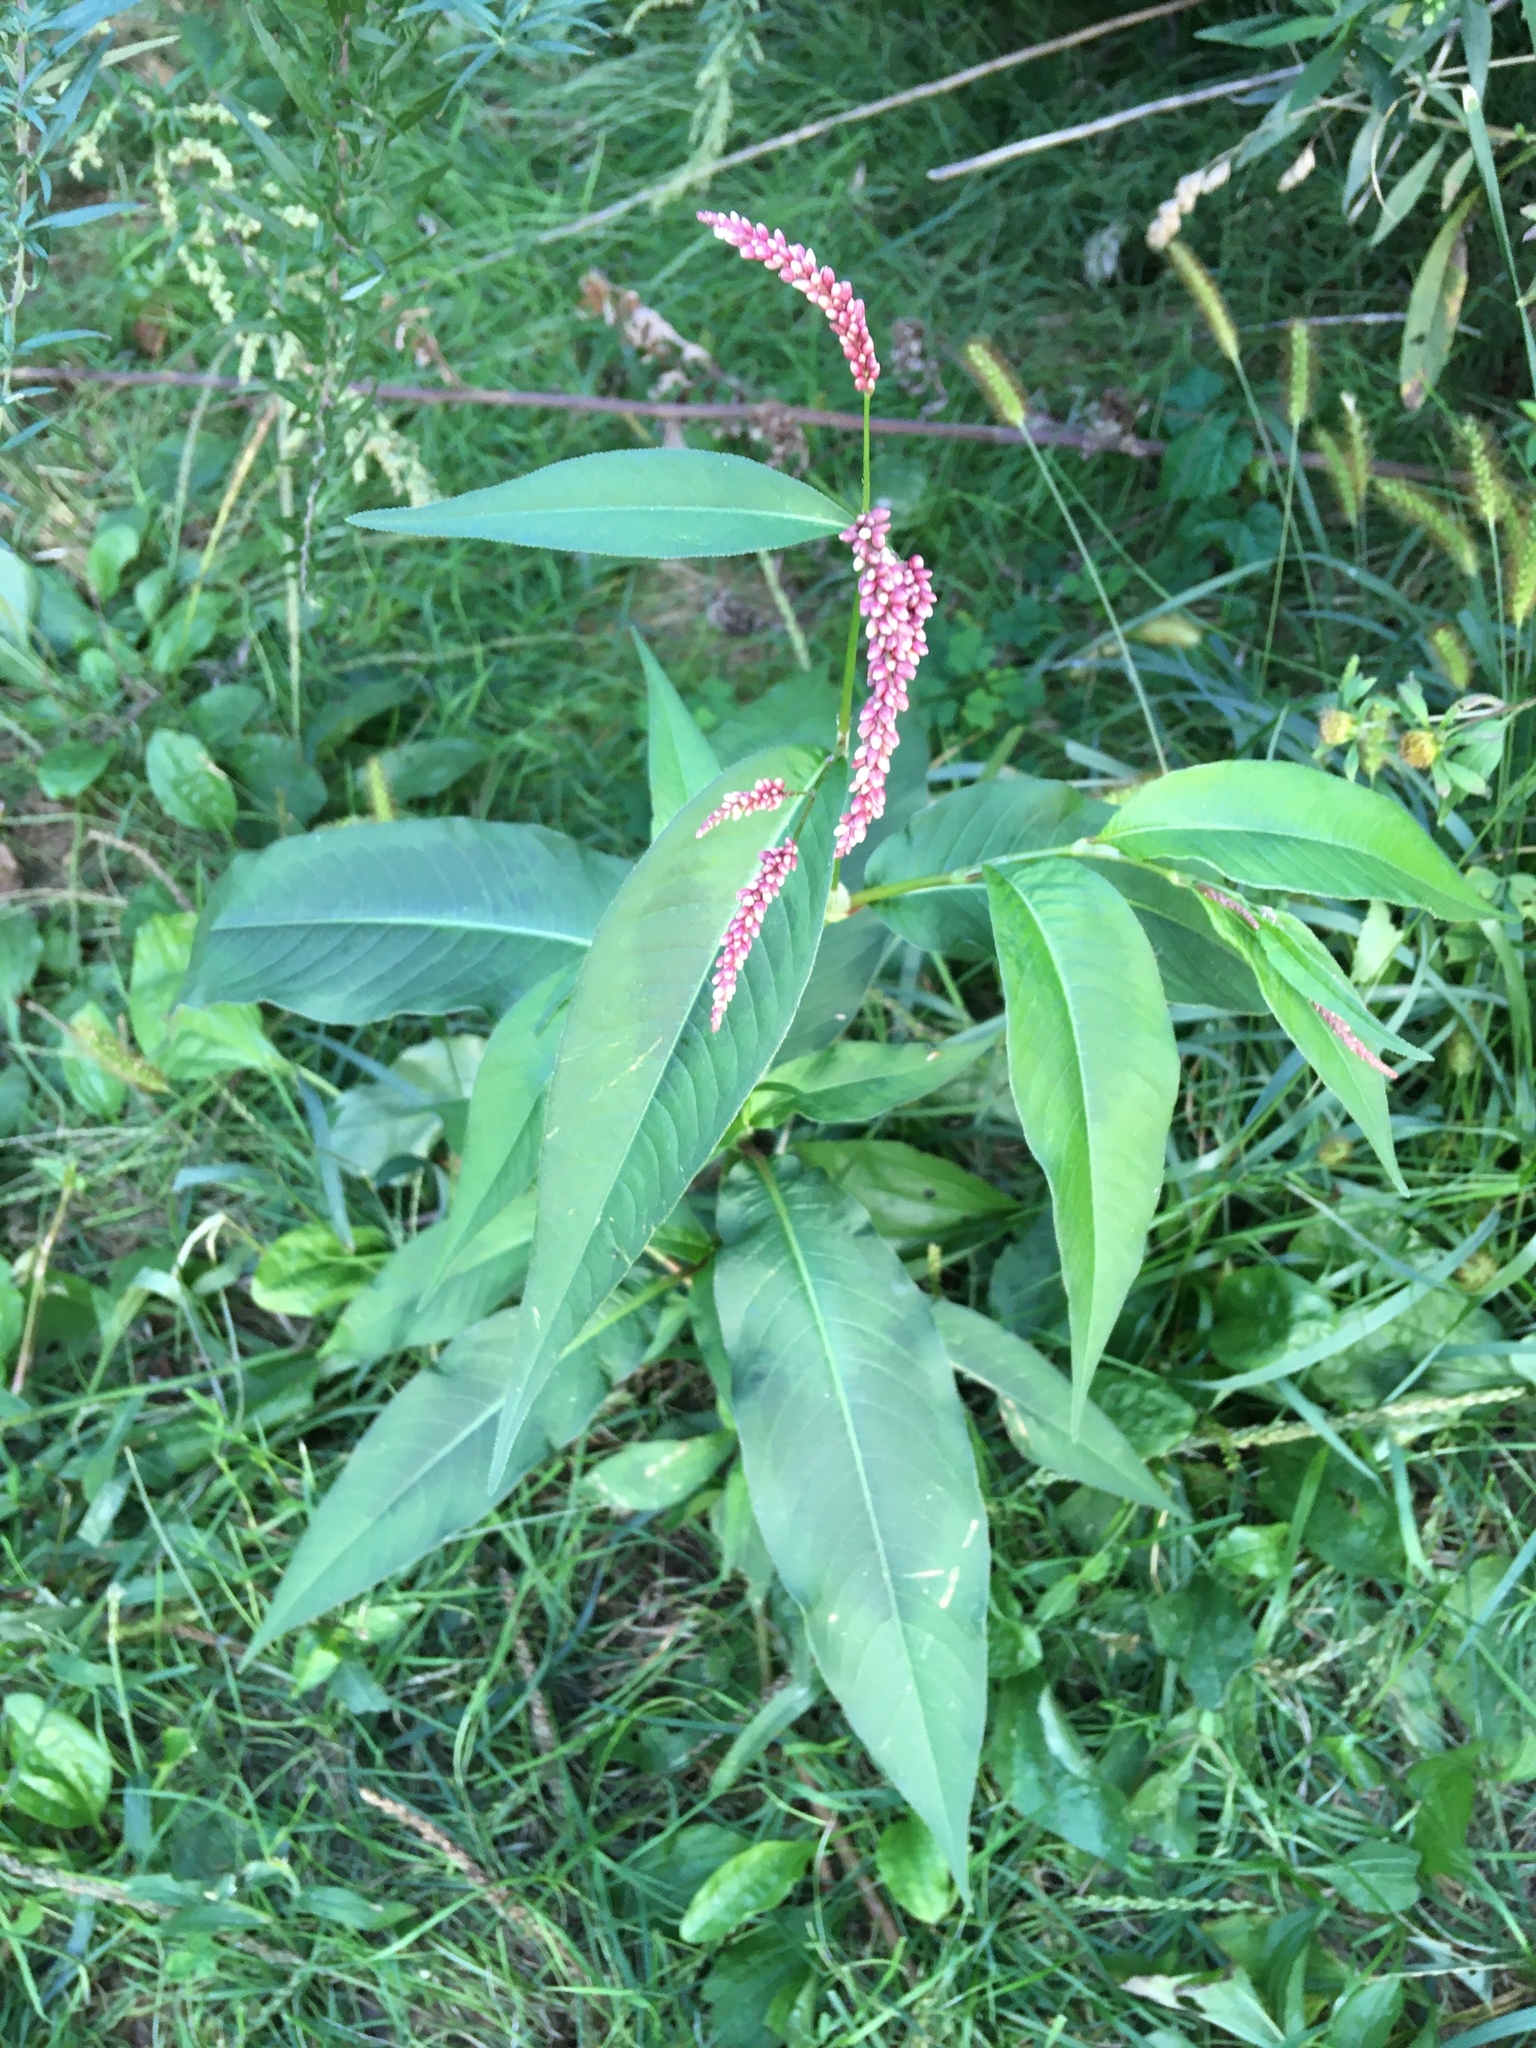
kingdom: Plantae
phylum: Tracheophyta
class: Magnoliopsida
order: Caryophyllales
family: Polygonaceae
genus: Persicaria
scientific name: Persicaria extremiorientalis
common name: Far-eastern smartweed
